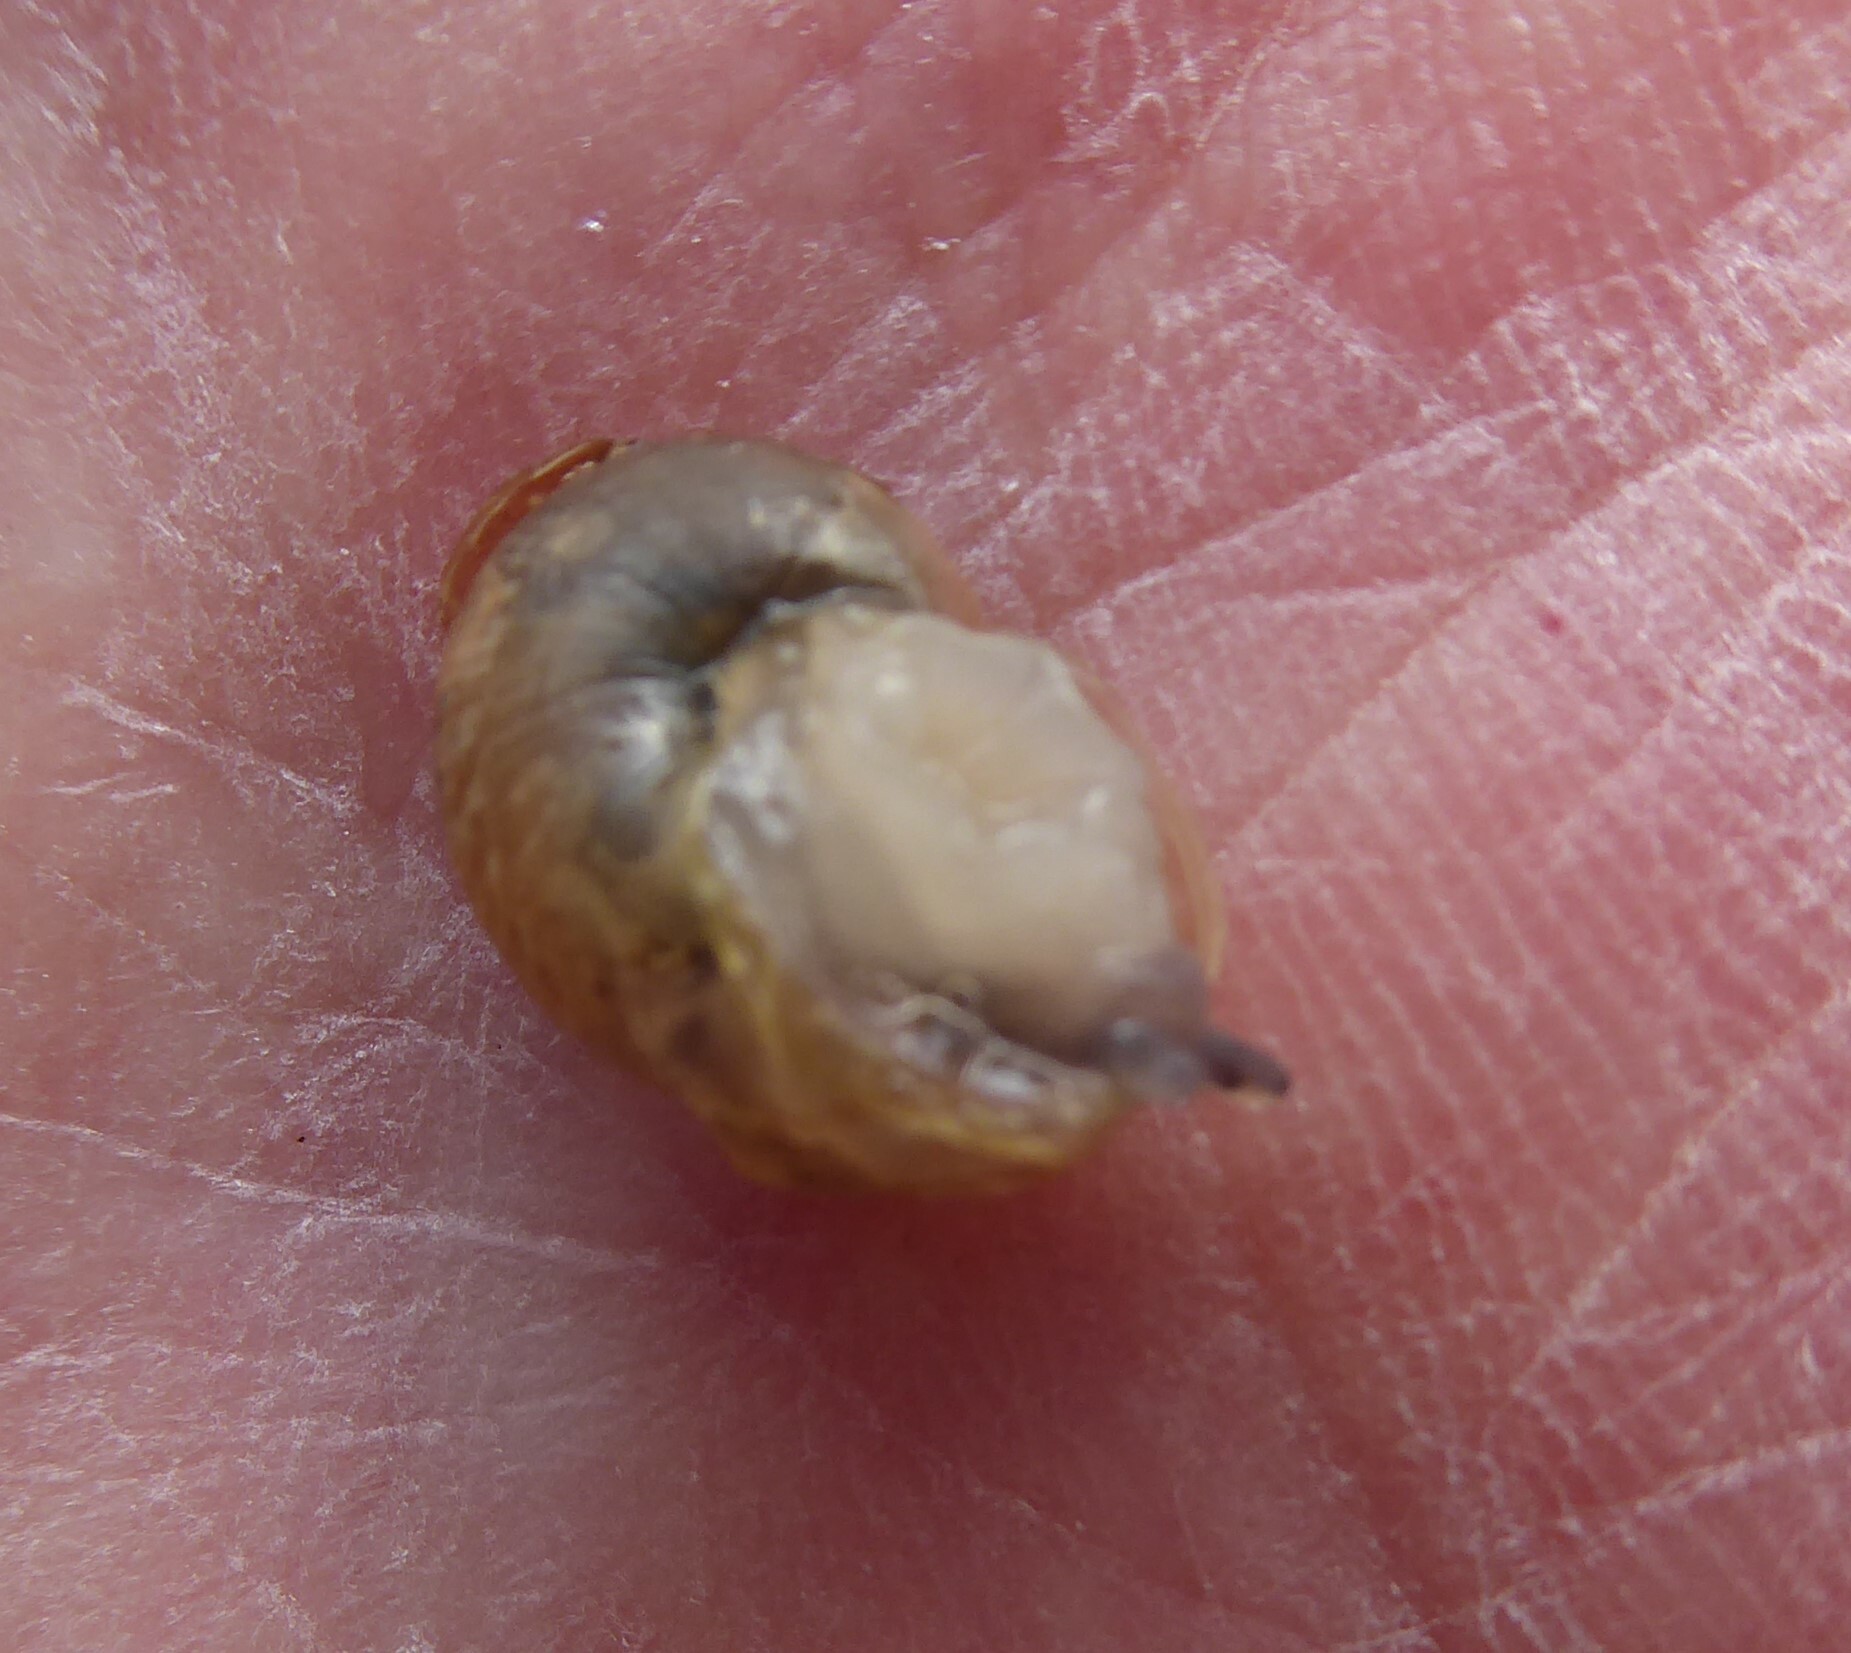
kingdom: Animalia
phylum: Mollusca
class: Gastropoda
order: Stylommatophora
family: Helicidae
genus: Cornu
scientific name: Cornu aspersum
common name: Brown garden snail
